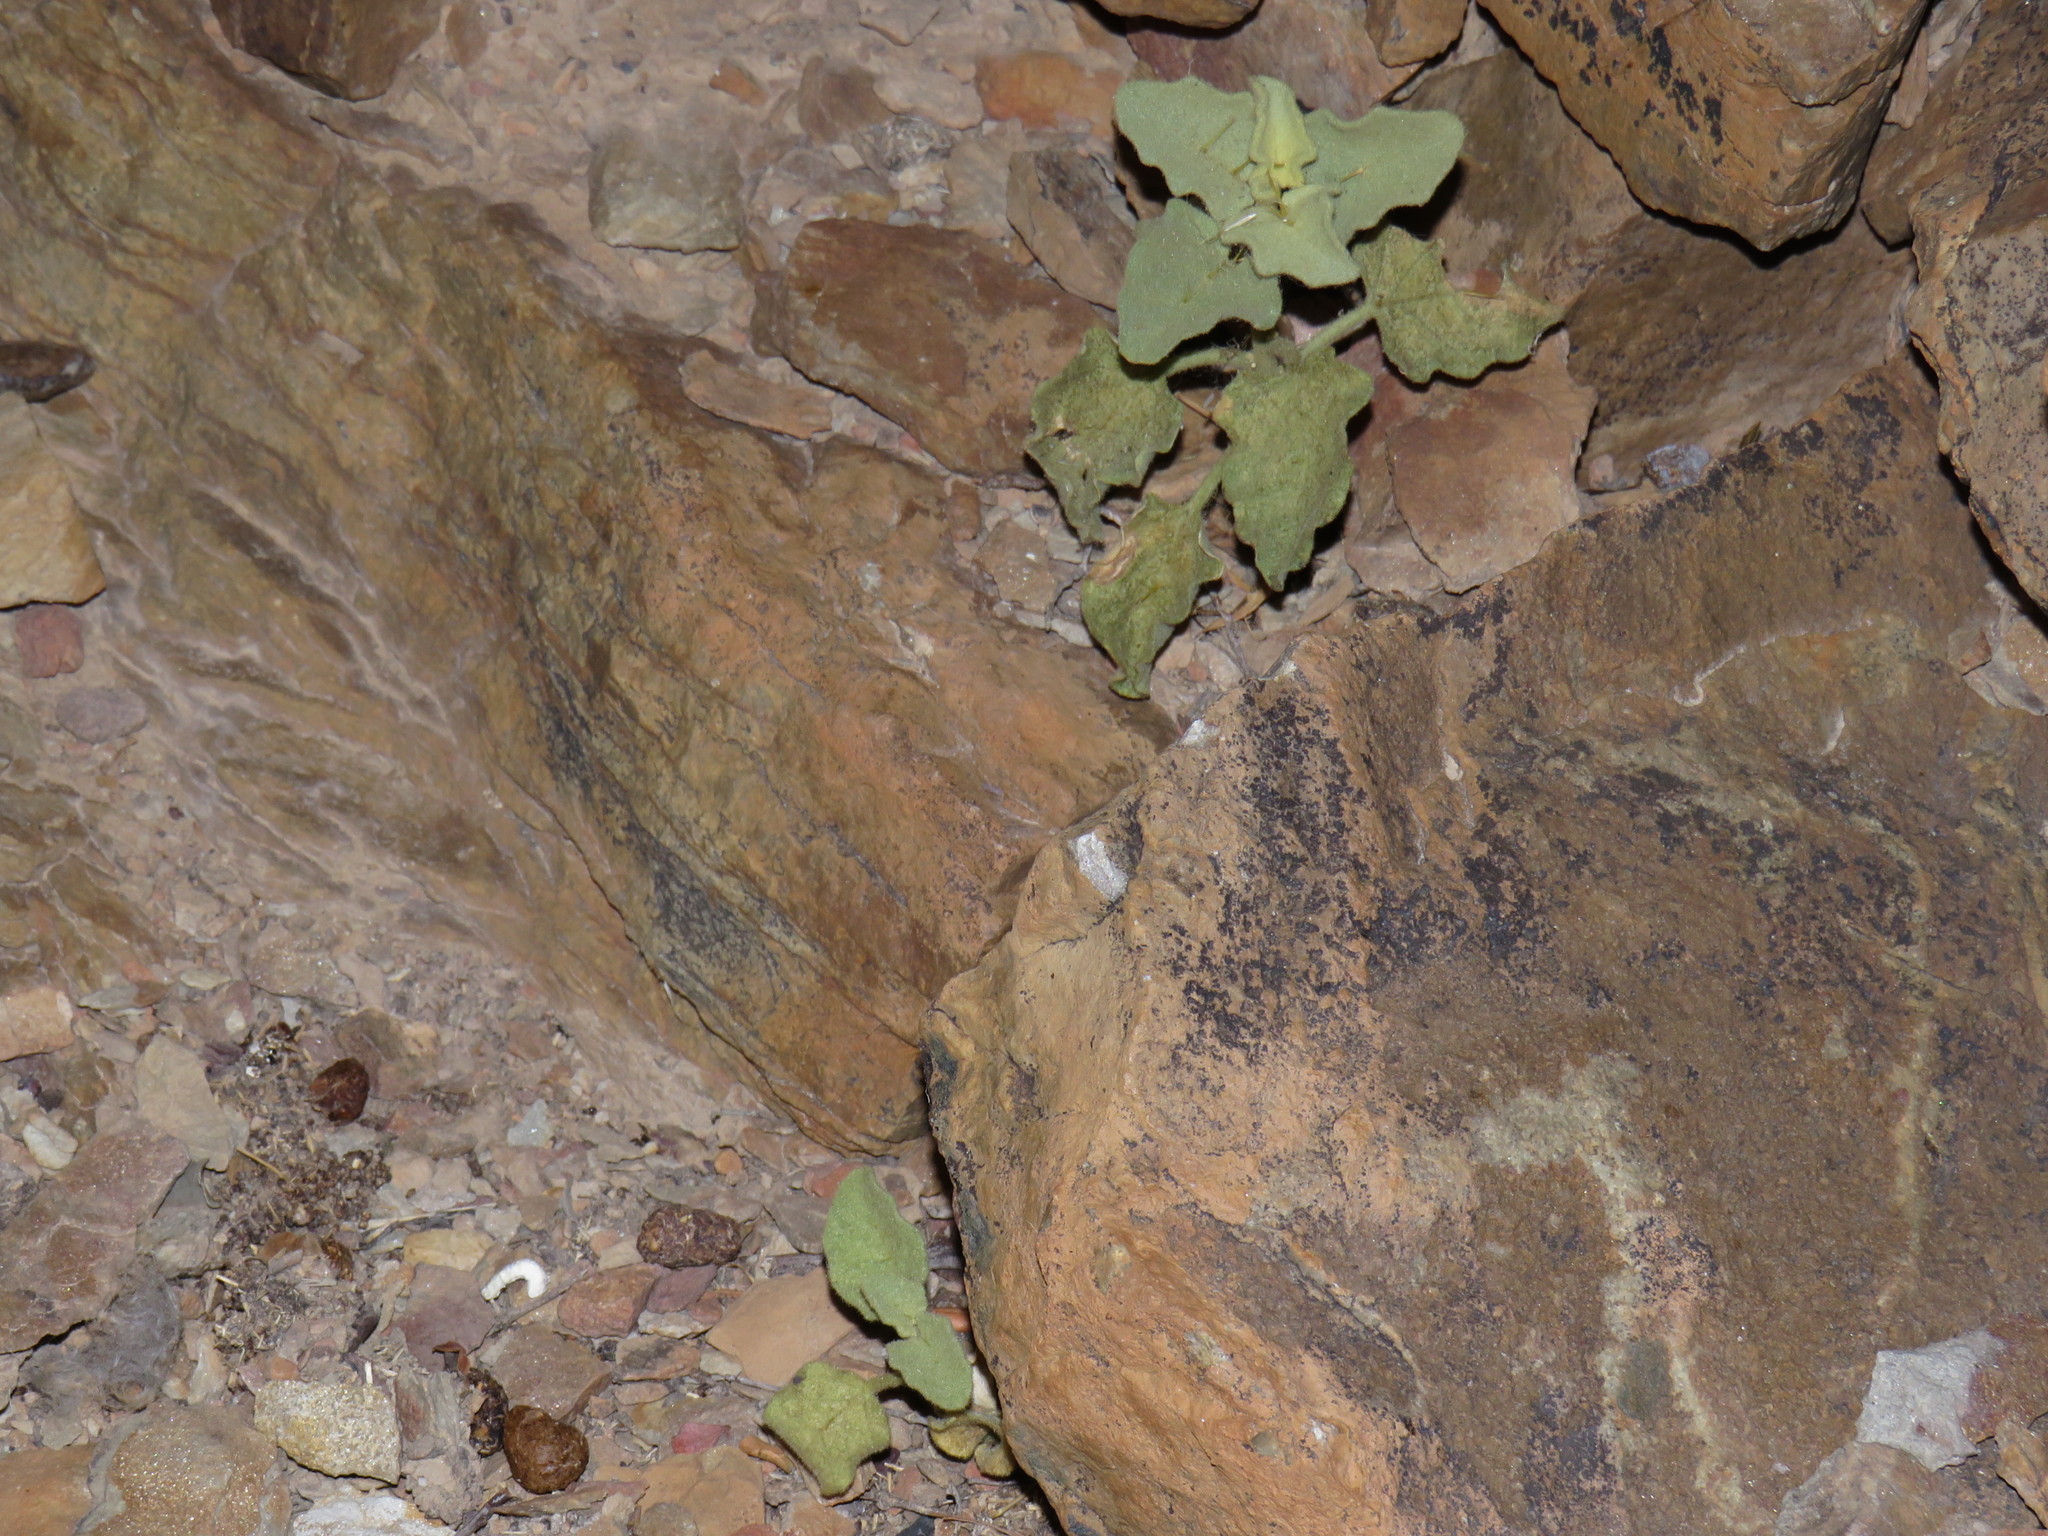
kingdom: Plantae
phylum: Tracheophyta
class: Magnoliopsida
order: Solanales
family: Solanaceae
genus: Solanum
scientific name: Solanum tomentosum
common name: Wild aubergine
